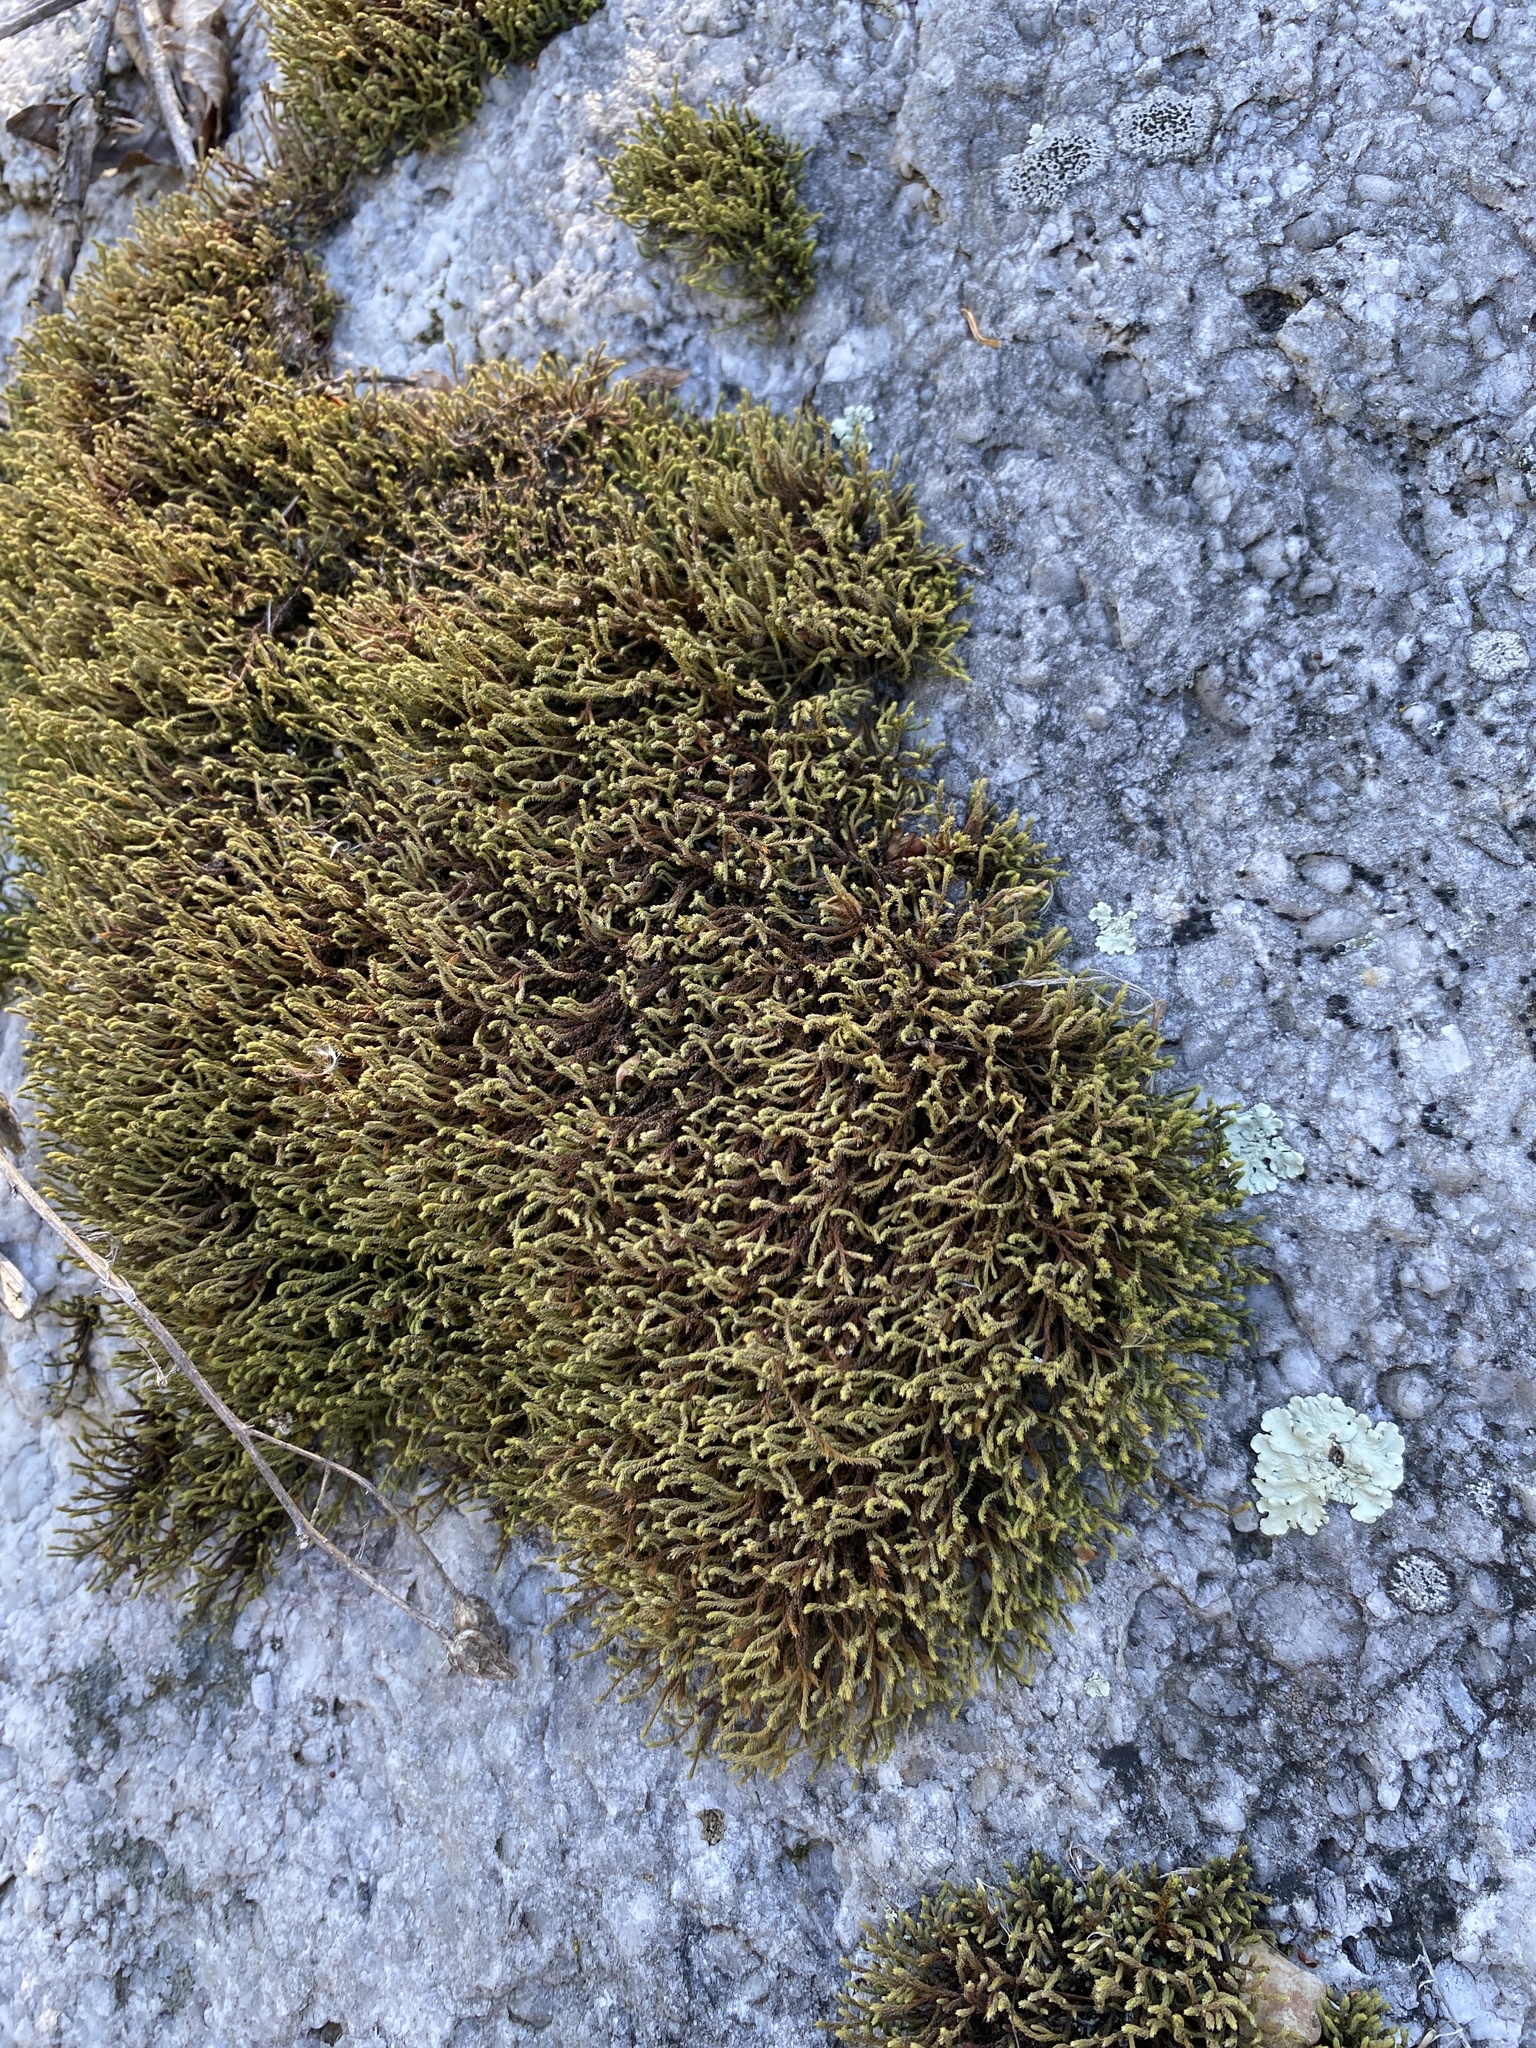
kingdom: Plantae
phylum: Bryophyta
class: Bryopsida
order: Hedwigiales
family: Hedwigiaceae
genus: Hedwigia
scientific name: Hedwigia ciliata
